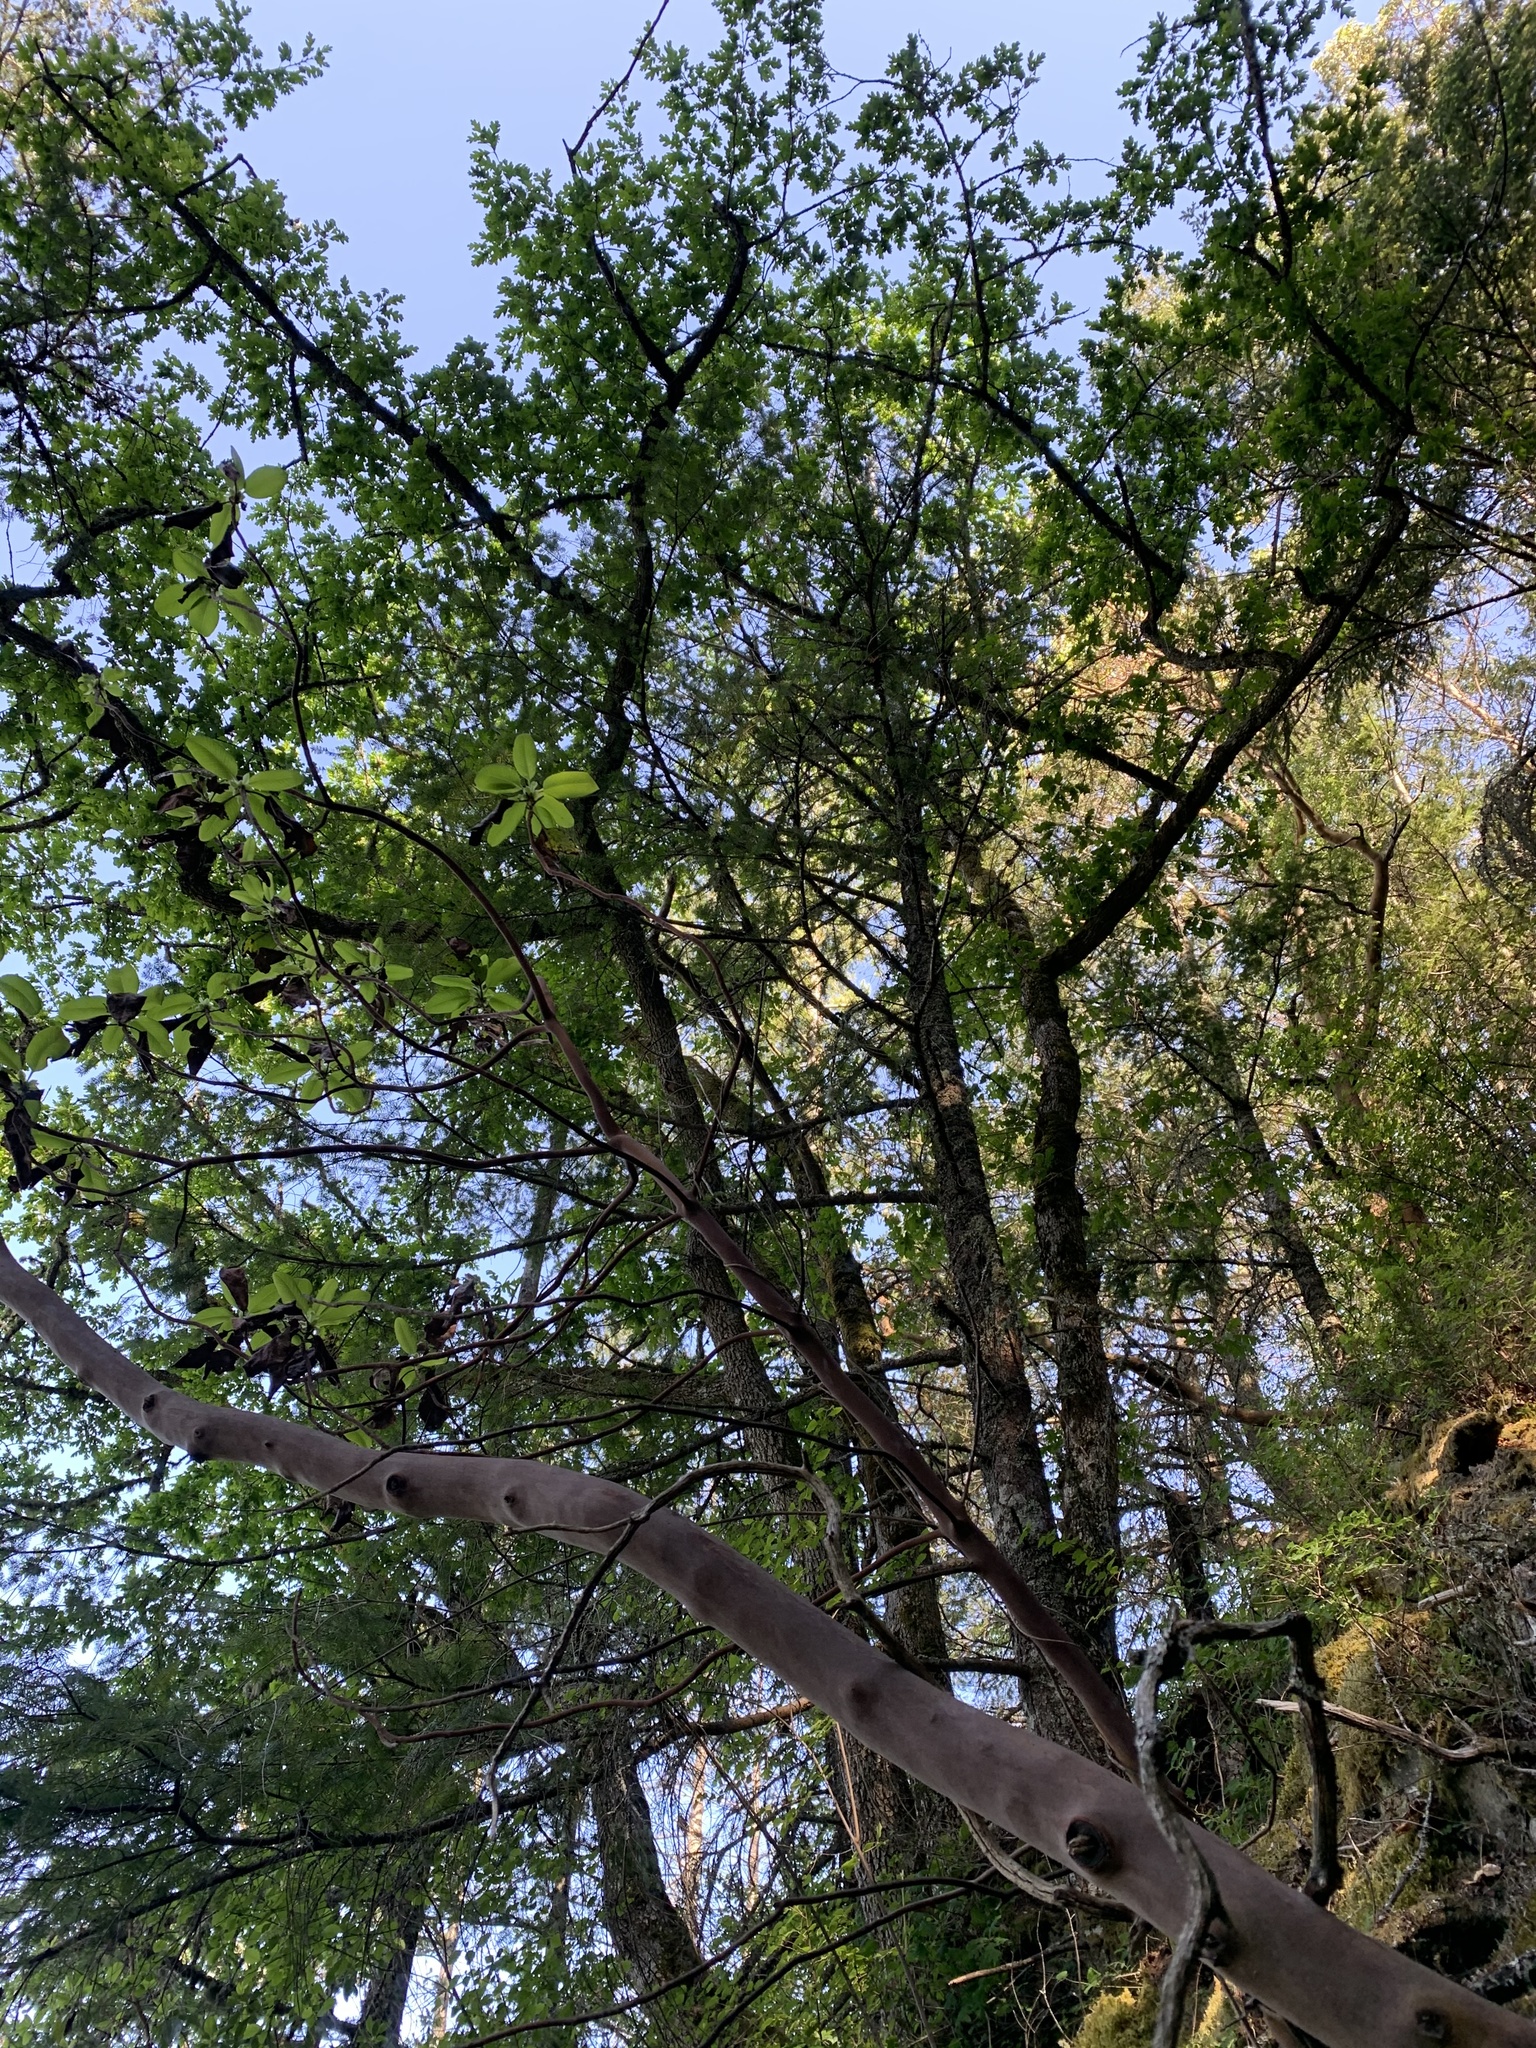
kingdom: Plantae
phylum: Tracheophyta
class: Magnoliopsida
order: Fagales
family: Fagaceae
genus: Quercus
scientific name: Quercus garryana
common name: Garry oak
